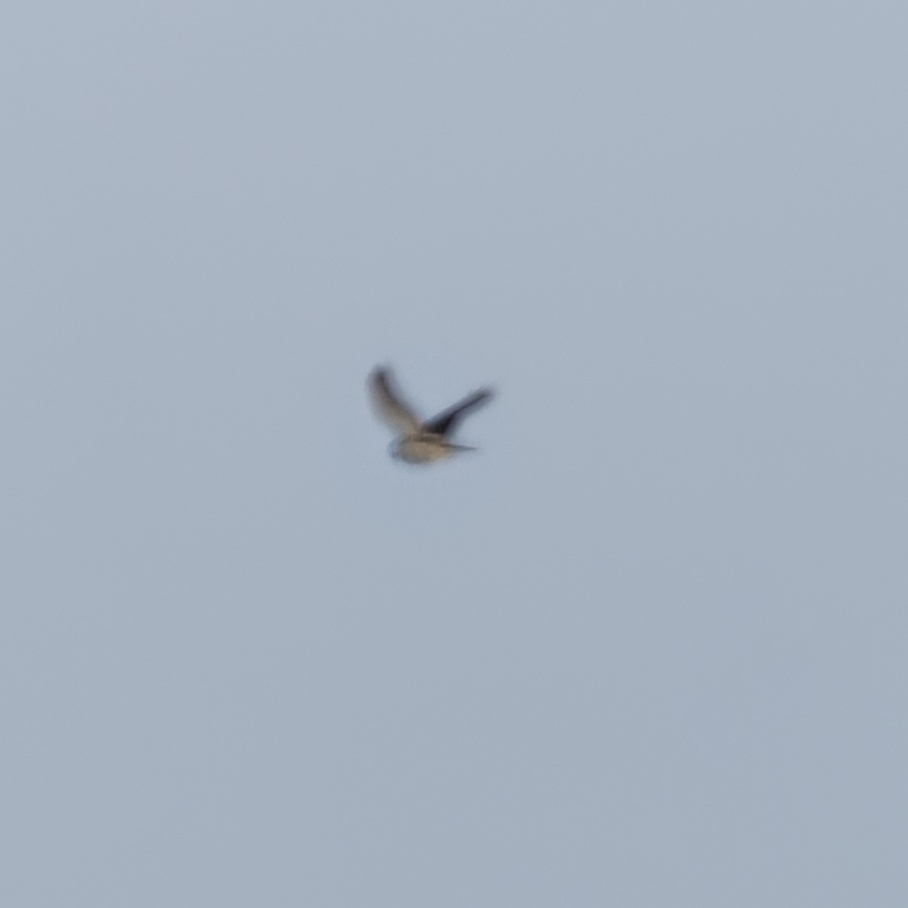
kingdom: Animalia
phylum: Chordata
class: Aves
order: Accipitriformes
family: Accipitridae
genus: Accipiter
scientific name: Accipiter nisus
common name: Eurasian sparrowhawk
